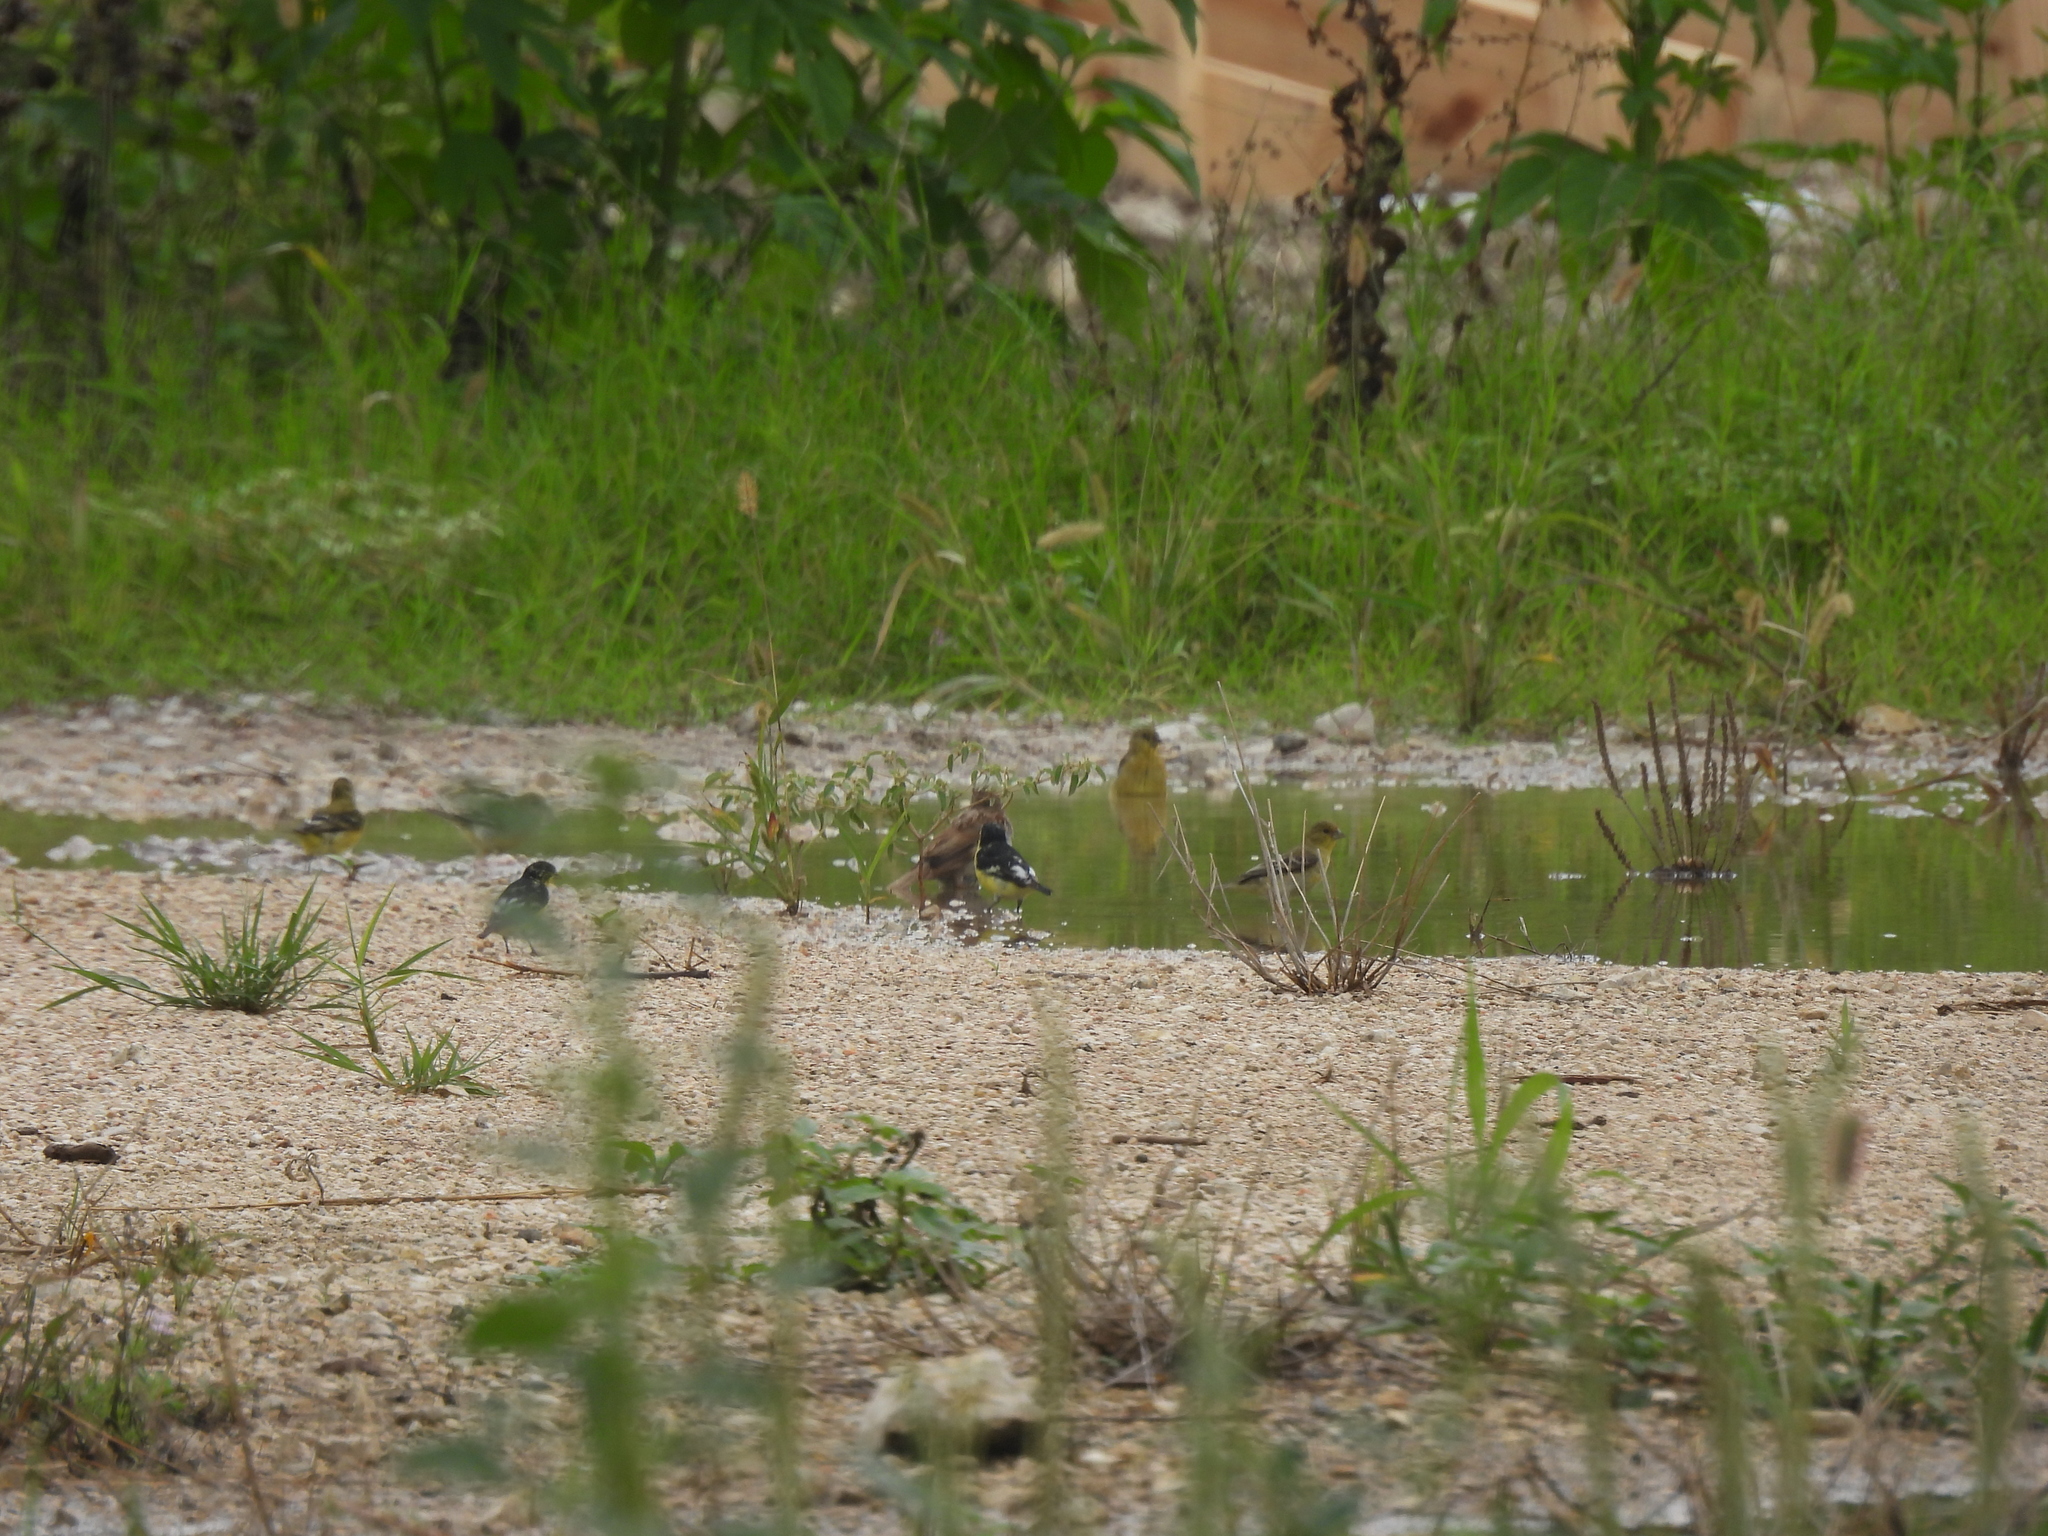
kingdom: Animalia
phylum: Chordata
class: Aves
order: Passeriformes
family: Fringillidae
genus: Spinus
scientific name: Spinus psaltria
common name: Lesser goldfinch
